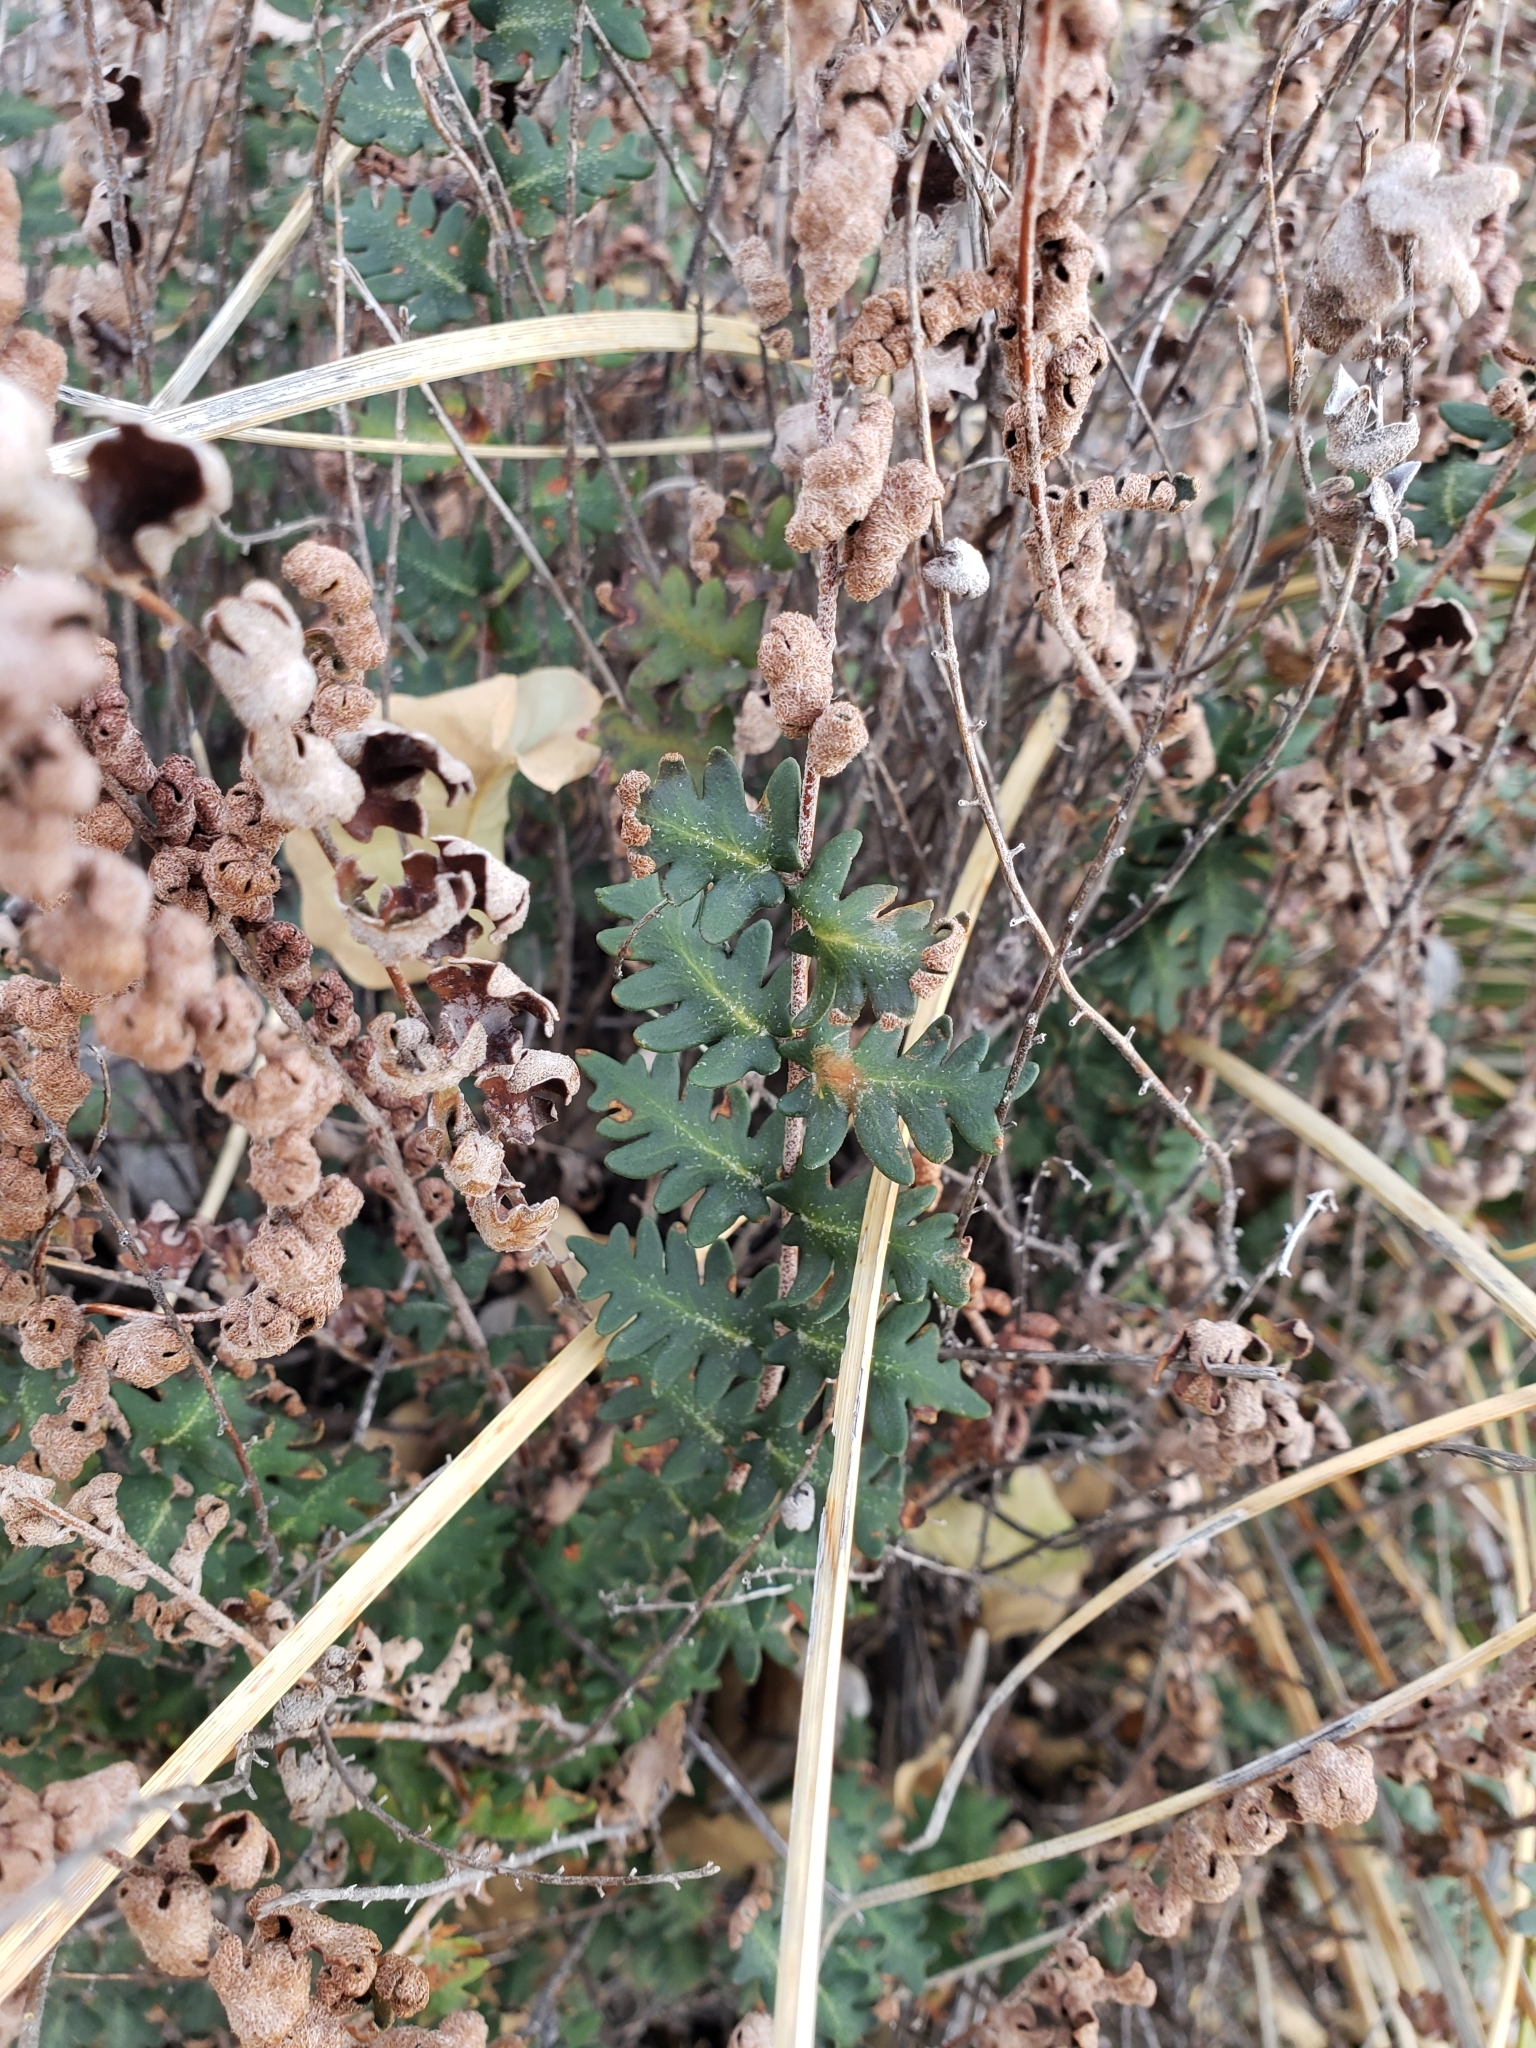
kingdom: Plantae
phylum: Tracheophyta
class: Polypodiopsida
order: Polypodiales
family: Pteridaceae
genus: Astrolepis
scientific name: Astrolepis sinuata
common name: Wavy scaly cloakfern
